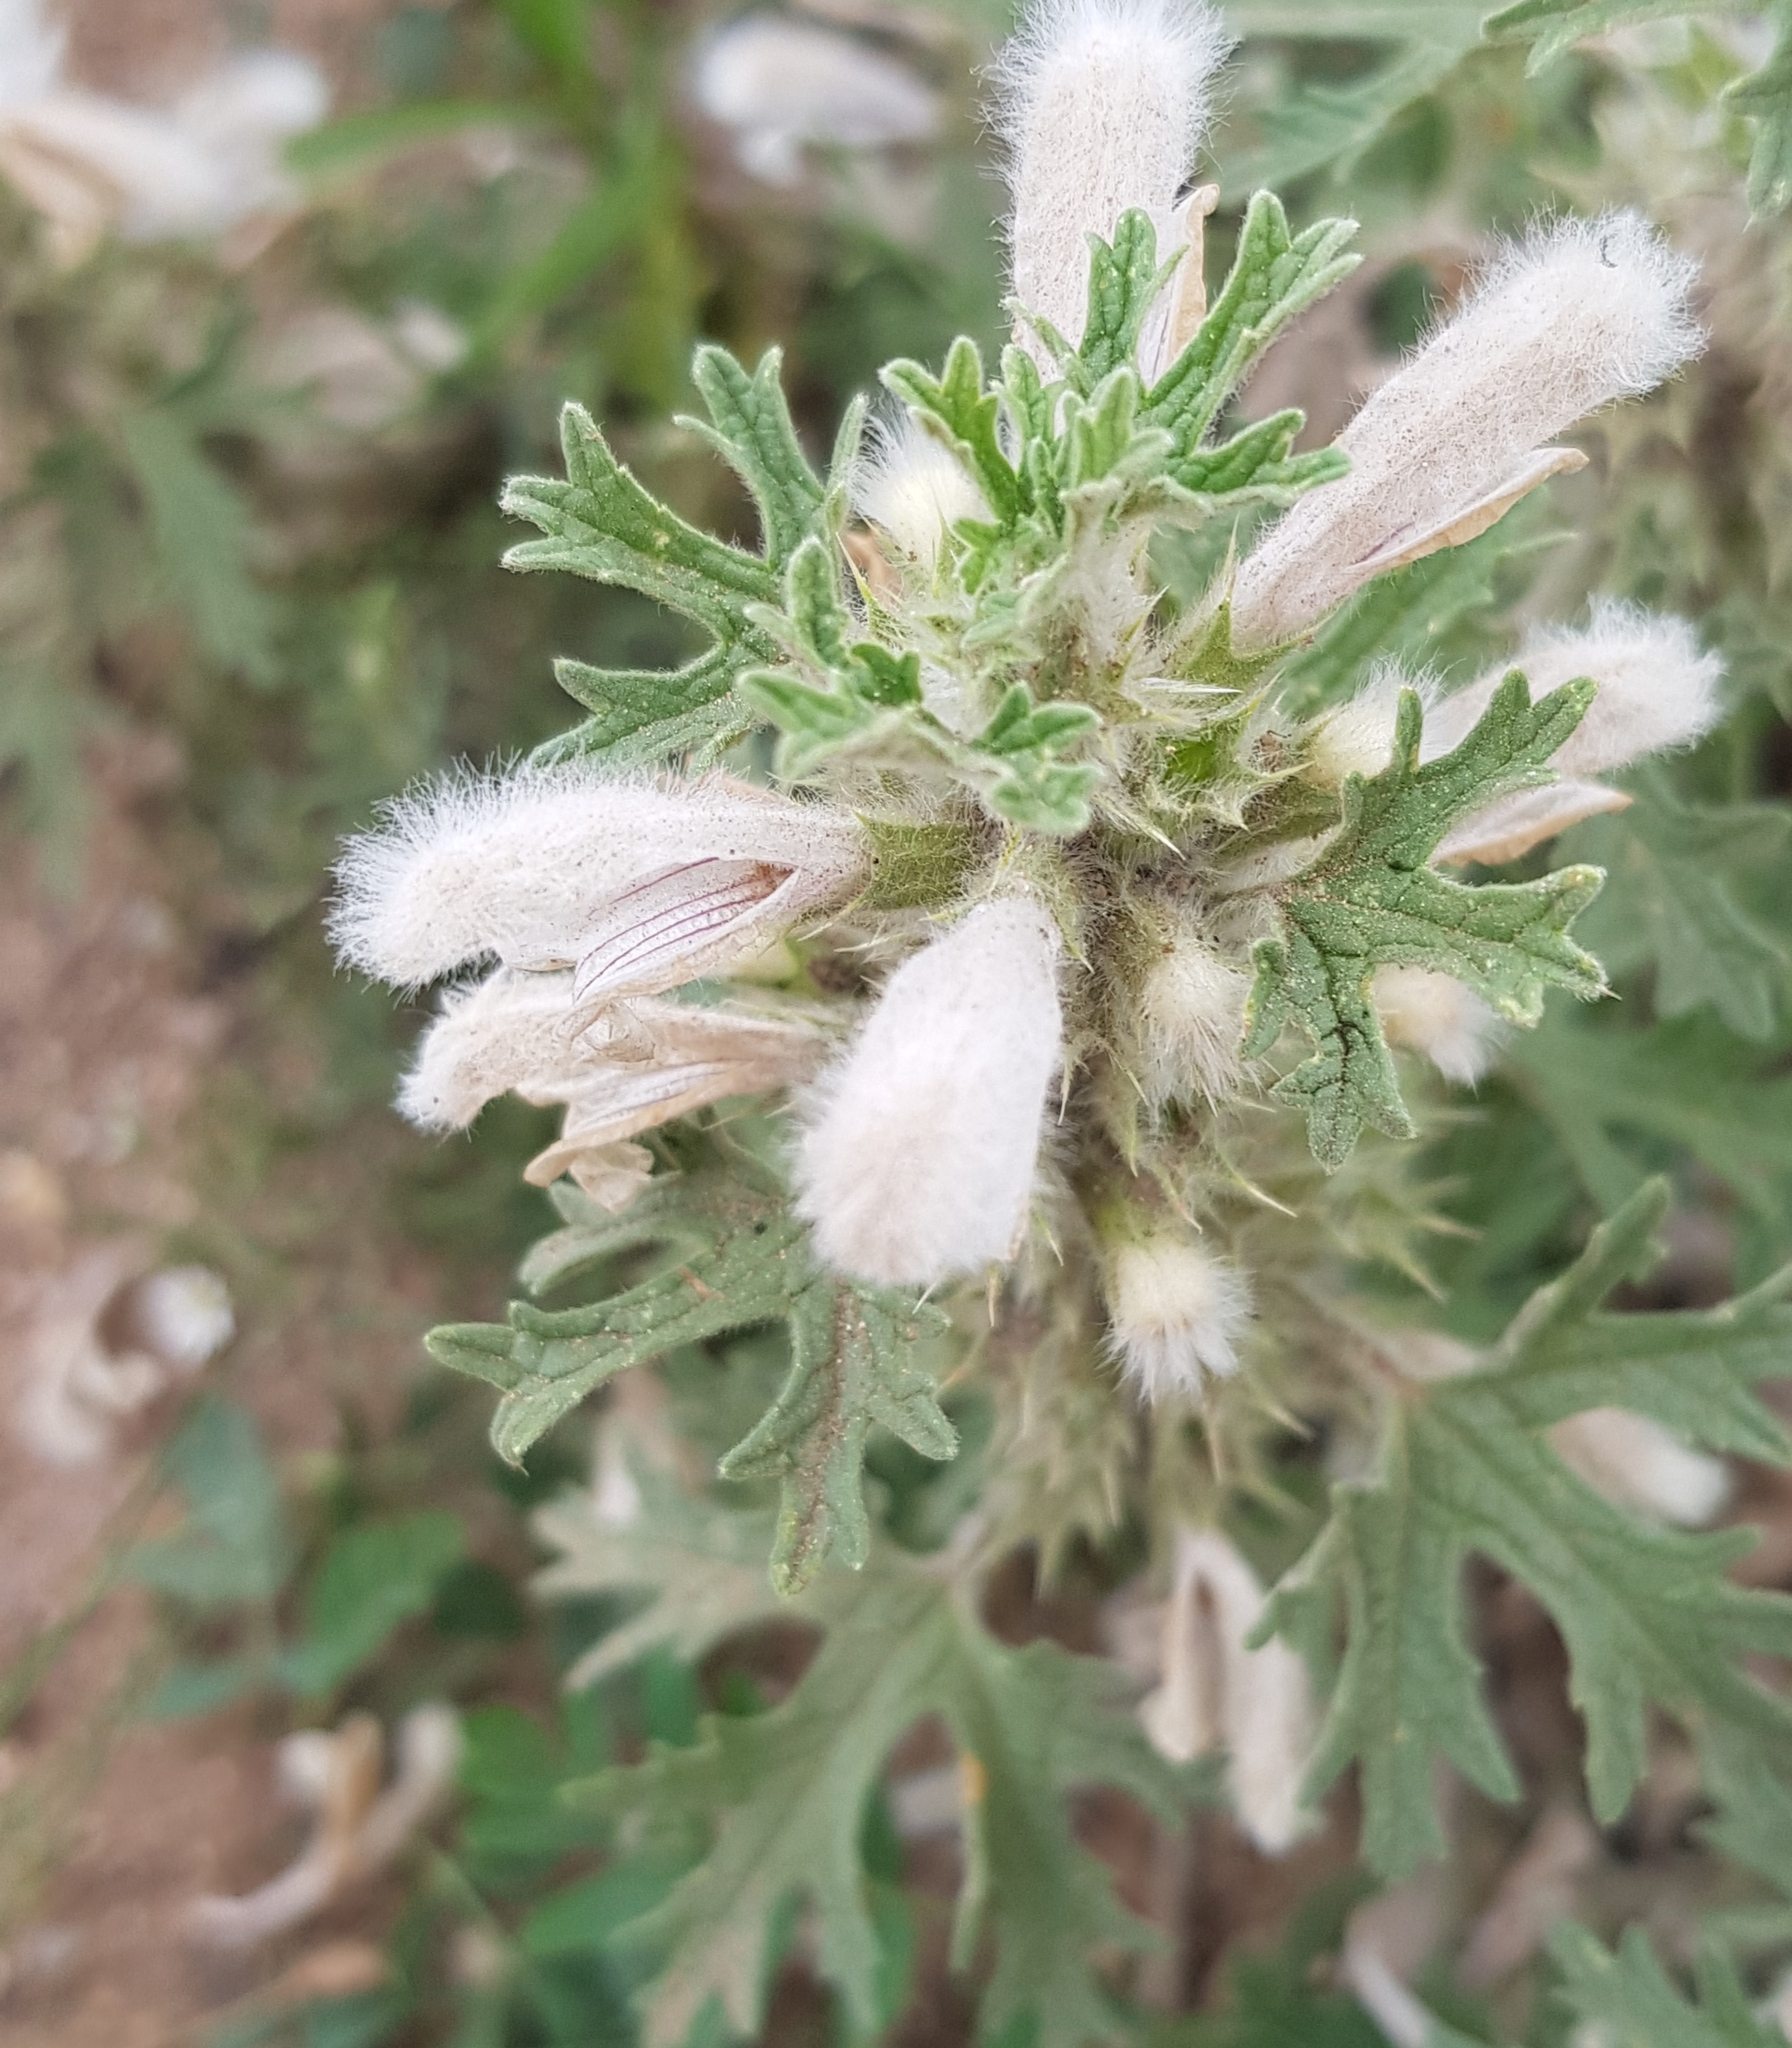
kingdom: Plantae
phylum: Tracheophyta
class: Magnoliopsida
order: Lamiales
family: Lamiaceae
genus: Panzerina
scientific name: Panzerina lanata
